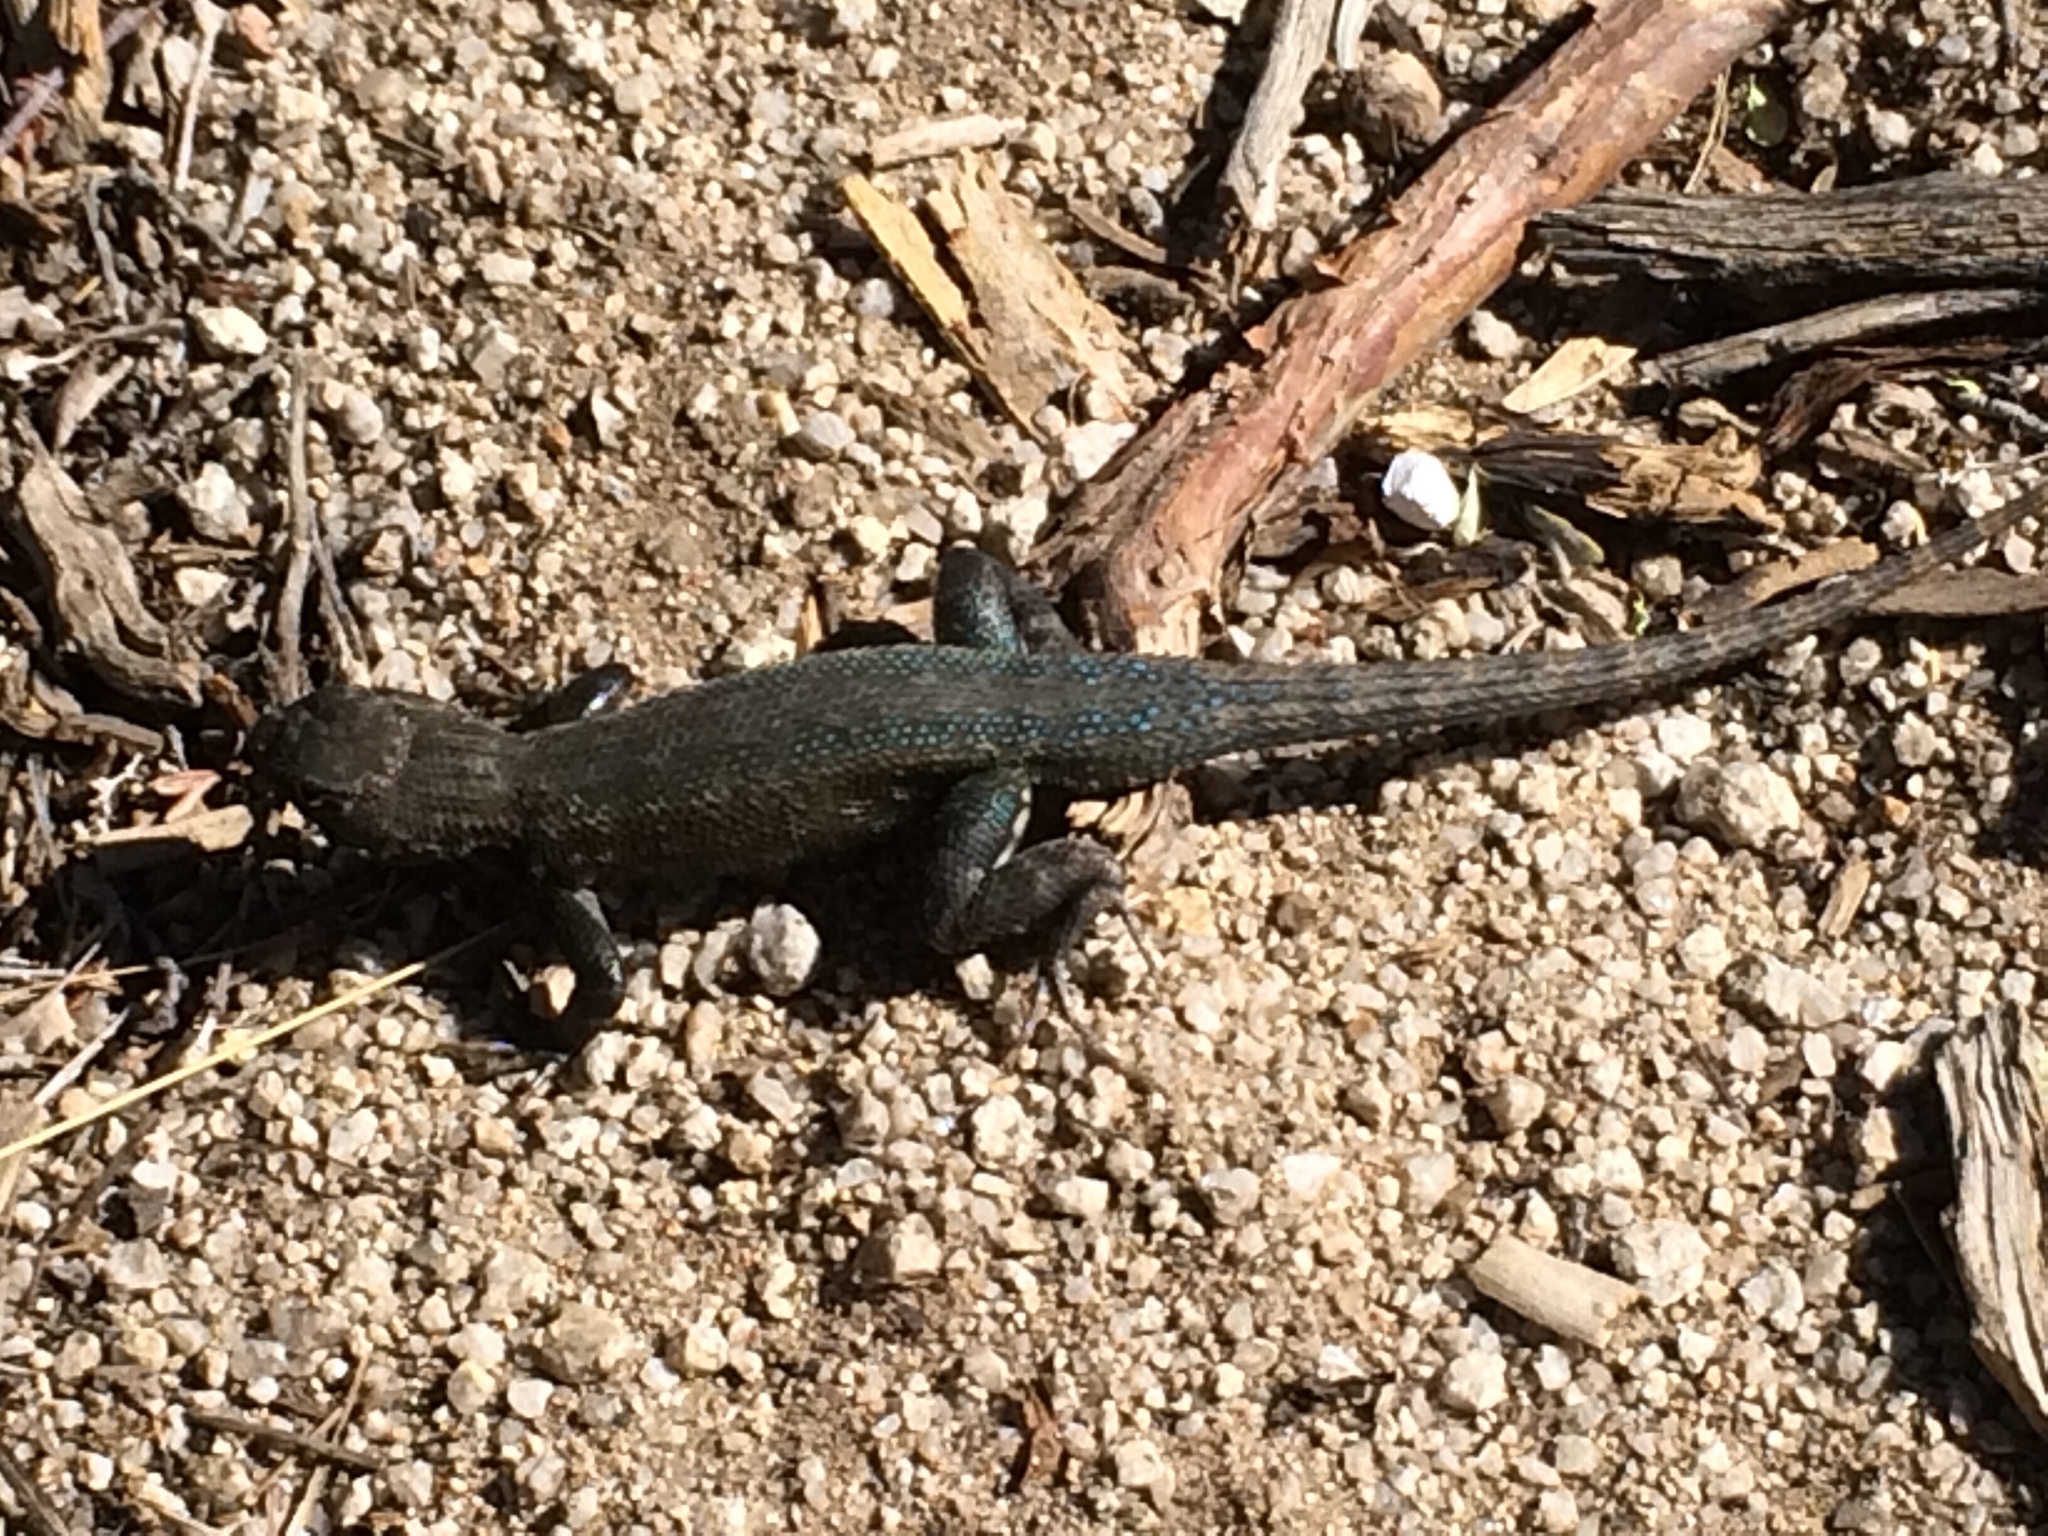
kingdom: Animalia
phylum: Chordata
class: Squamata
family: Phrynosomatidae
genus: Sceloporus
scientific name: Sceloporus graciosus
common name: Sagebrush lizard
